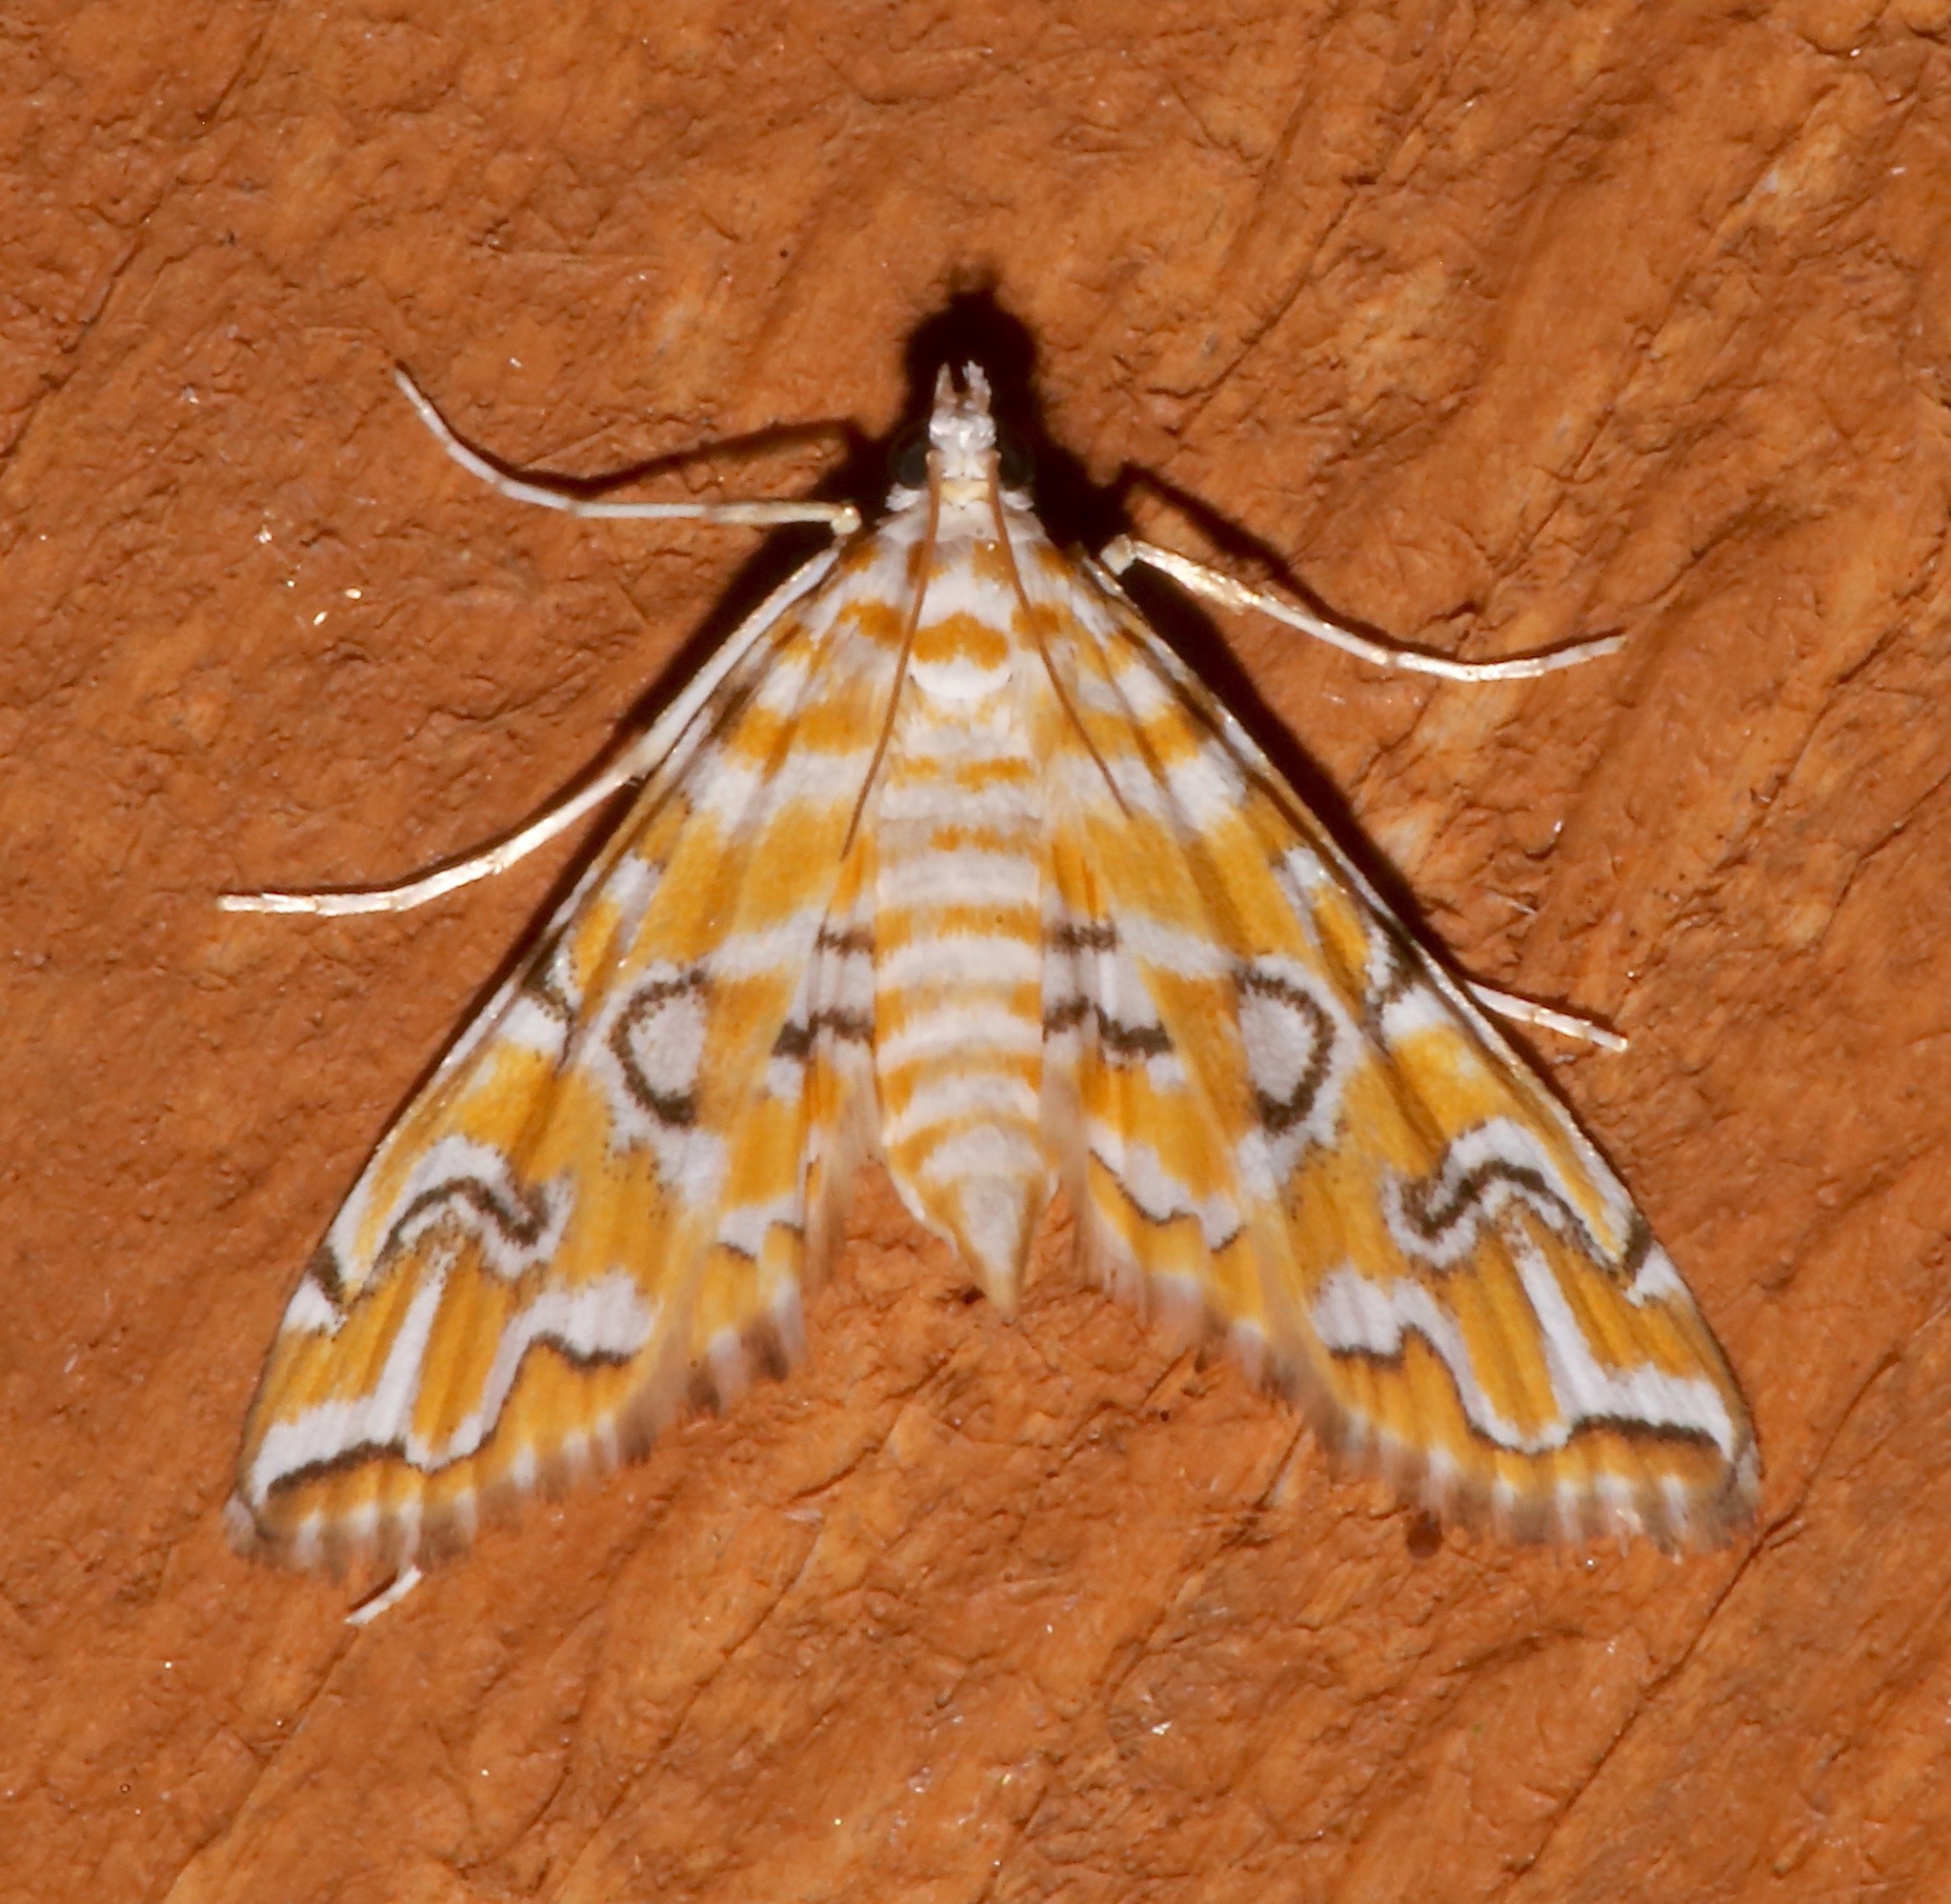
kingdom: Animalia
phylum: Arthropoda
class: Insecta
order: Lepidoptera
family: Crambidae
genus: Elophila
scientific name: Elophila icciusalis
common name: Pondside pyralid moth
